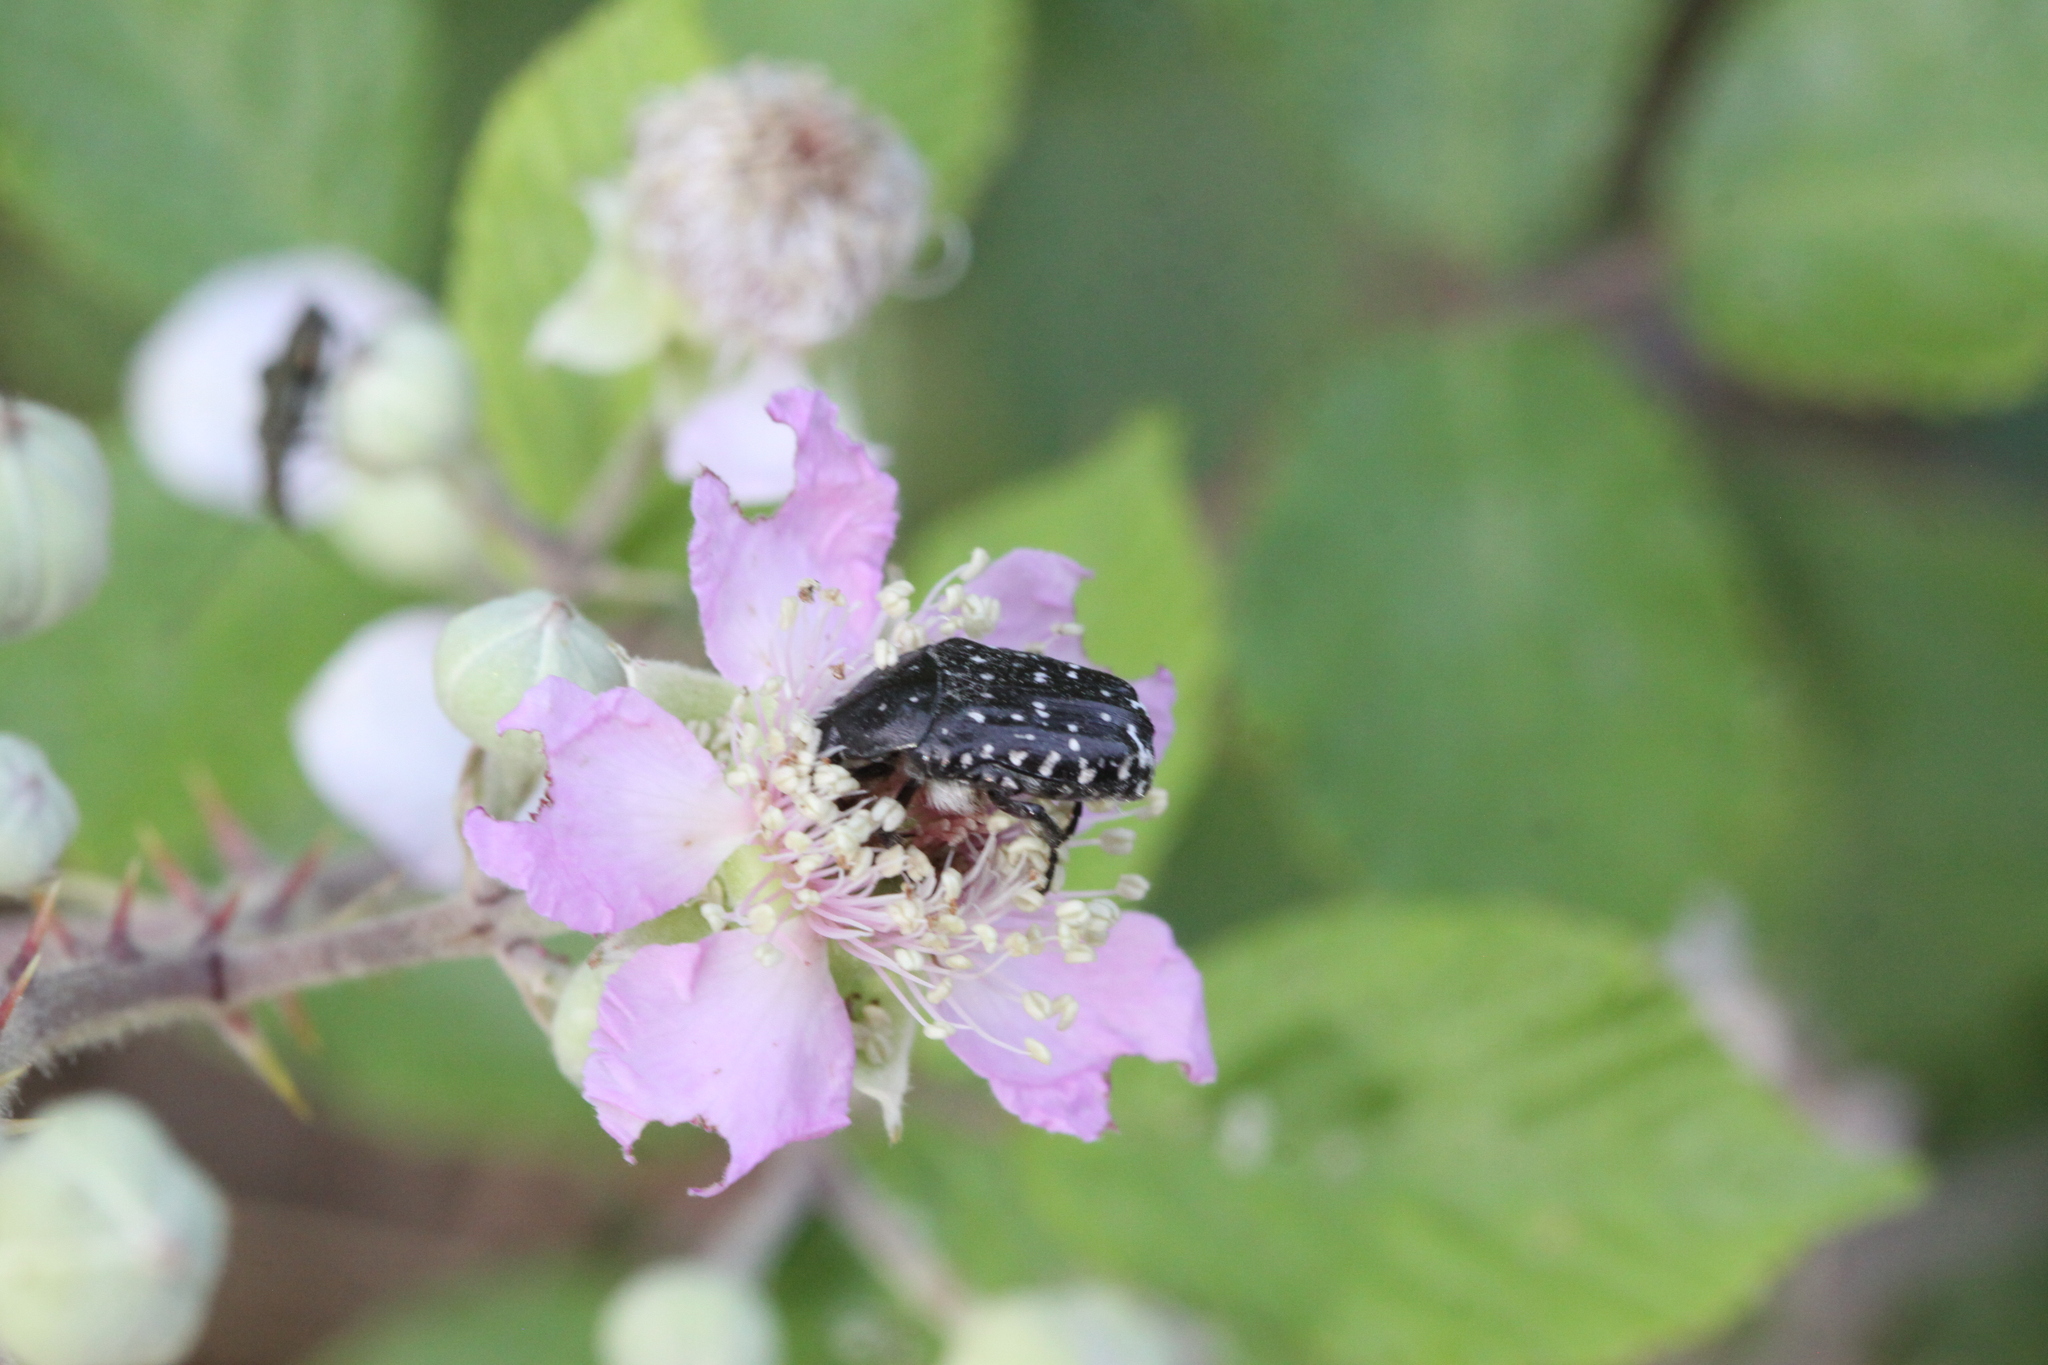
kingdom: Animalia
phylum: Arthropoda
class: Insecta
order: Coleoptera
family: Scarabaeidae
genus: Oxythyrea
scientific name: Oxythyrea funesta
